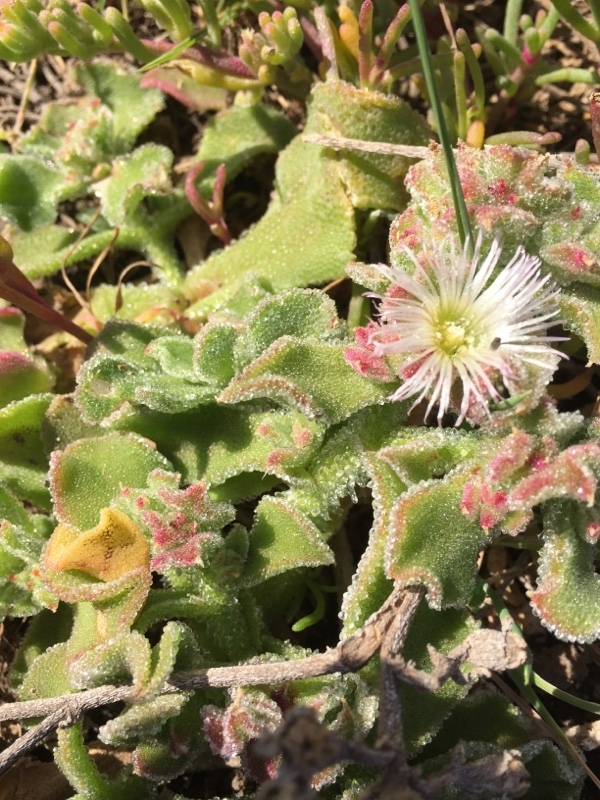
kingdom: Plantae
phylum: Tracheophyta
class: Magnoliopsida
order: Caryophyllales
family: Aizoaceae
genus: Mesembryanthemum
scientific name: Mesembryanthemum crystallinum
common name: Common iceplant
